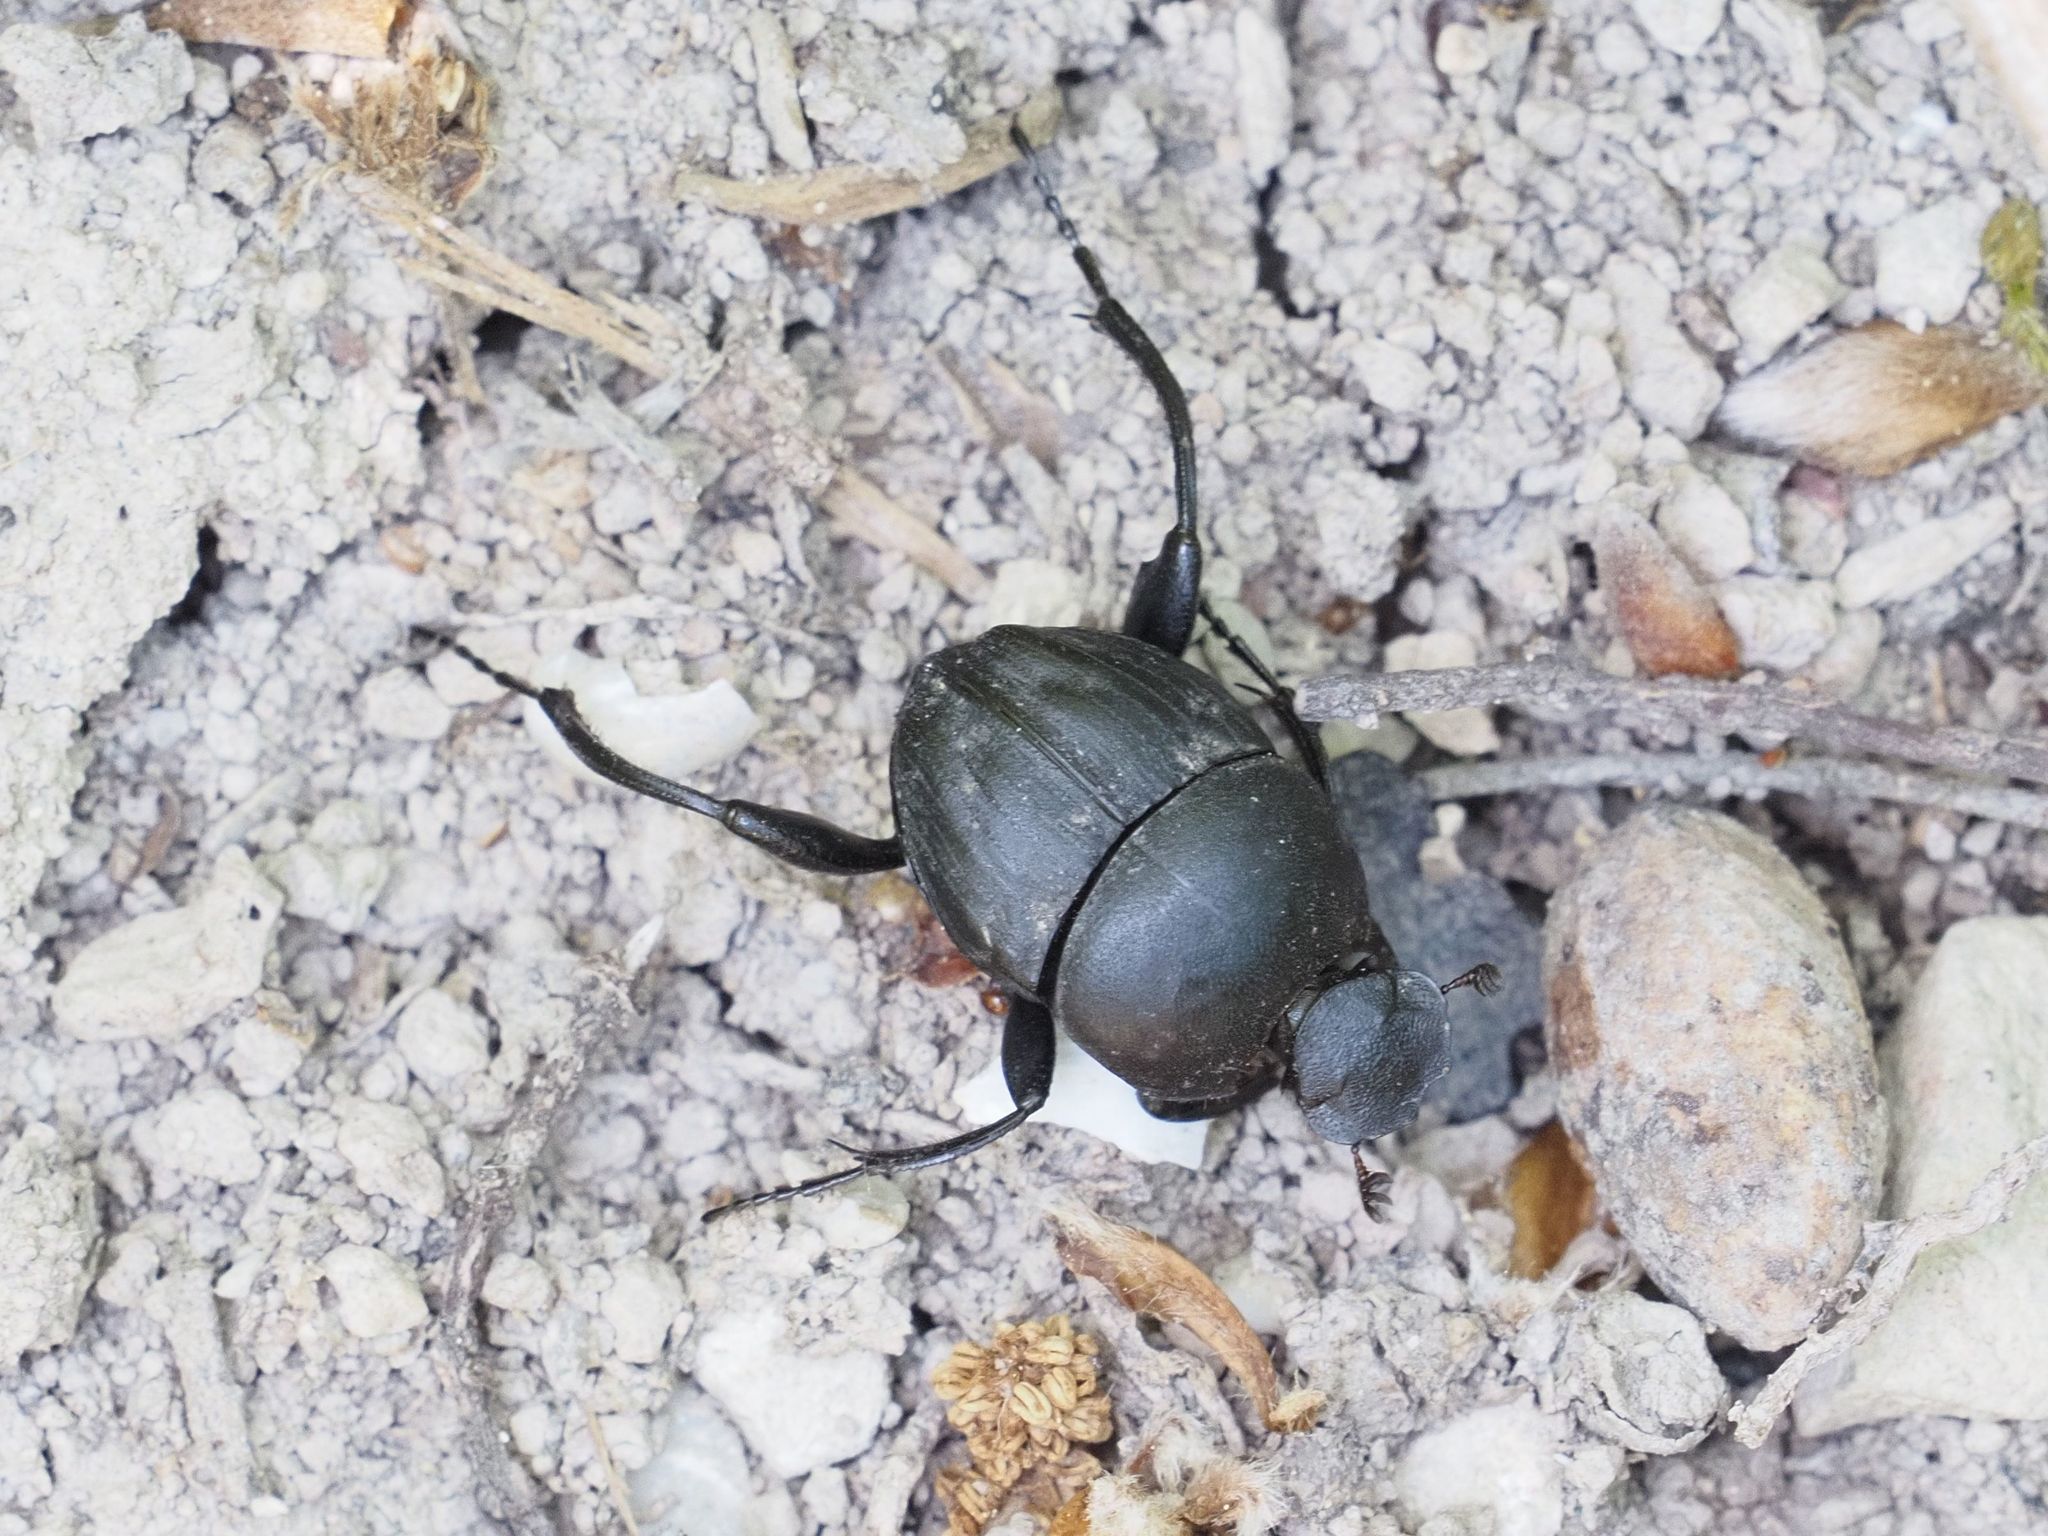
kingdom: Animalia
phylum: Arthropoda
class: Insecta
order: Coleoptera
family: Scarabaeidae
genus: Sisyphus
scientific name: Sisyphus schaefferi
